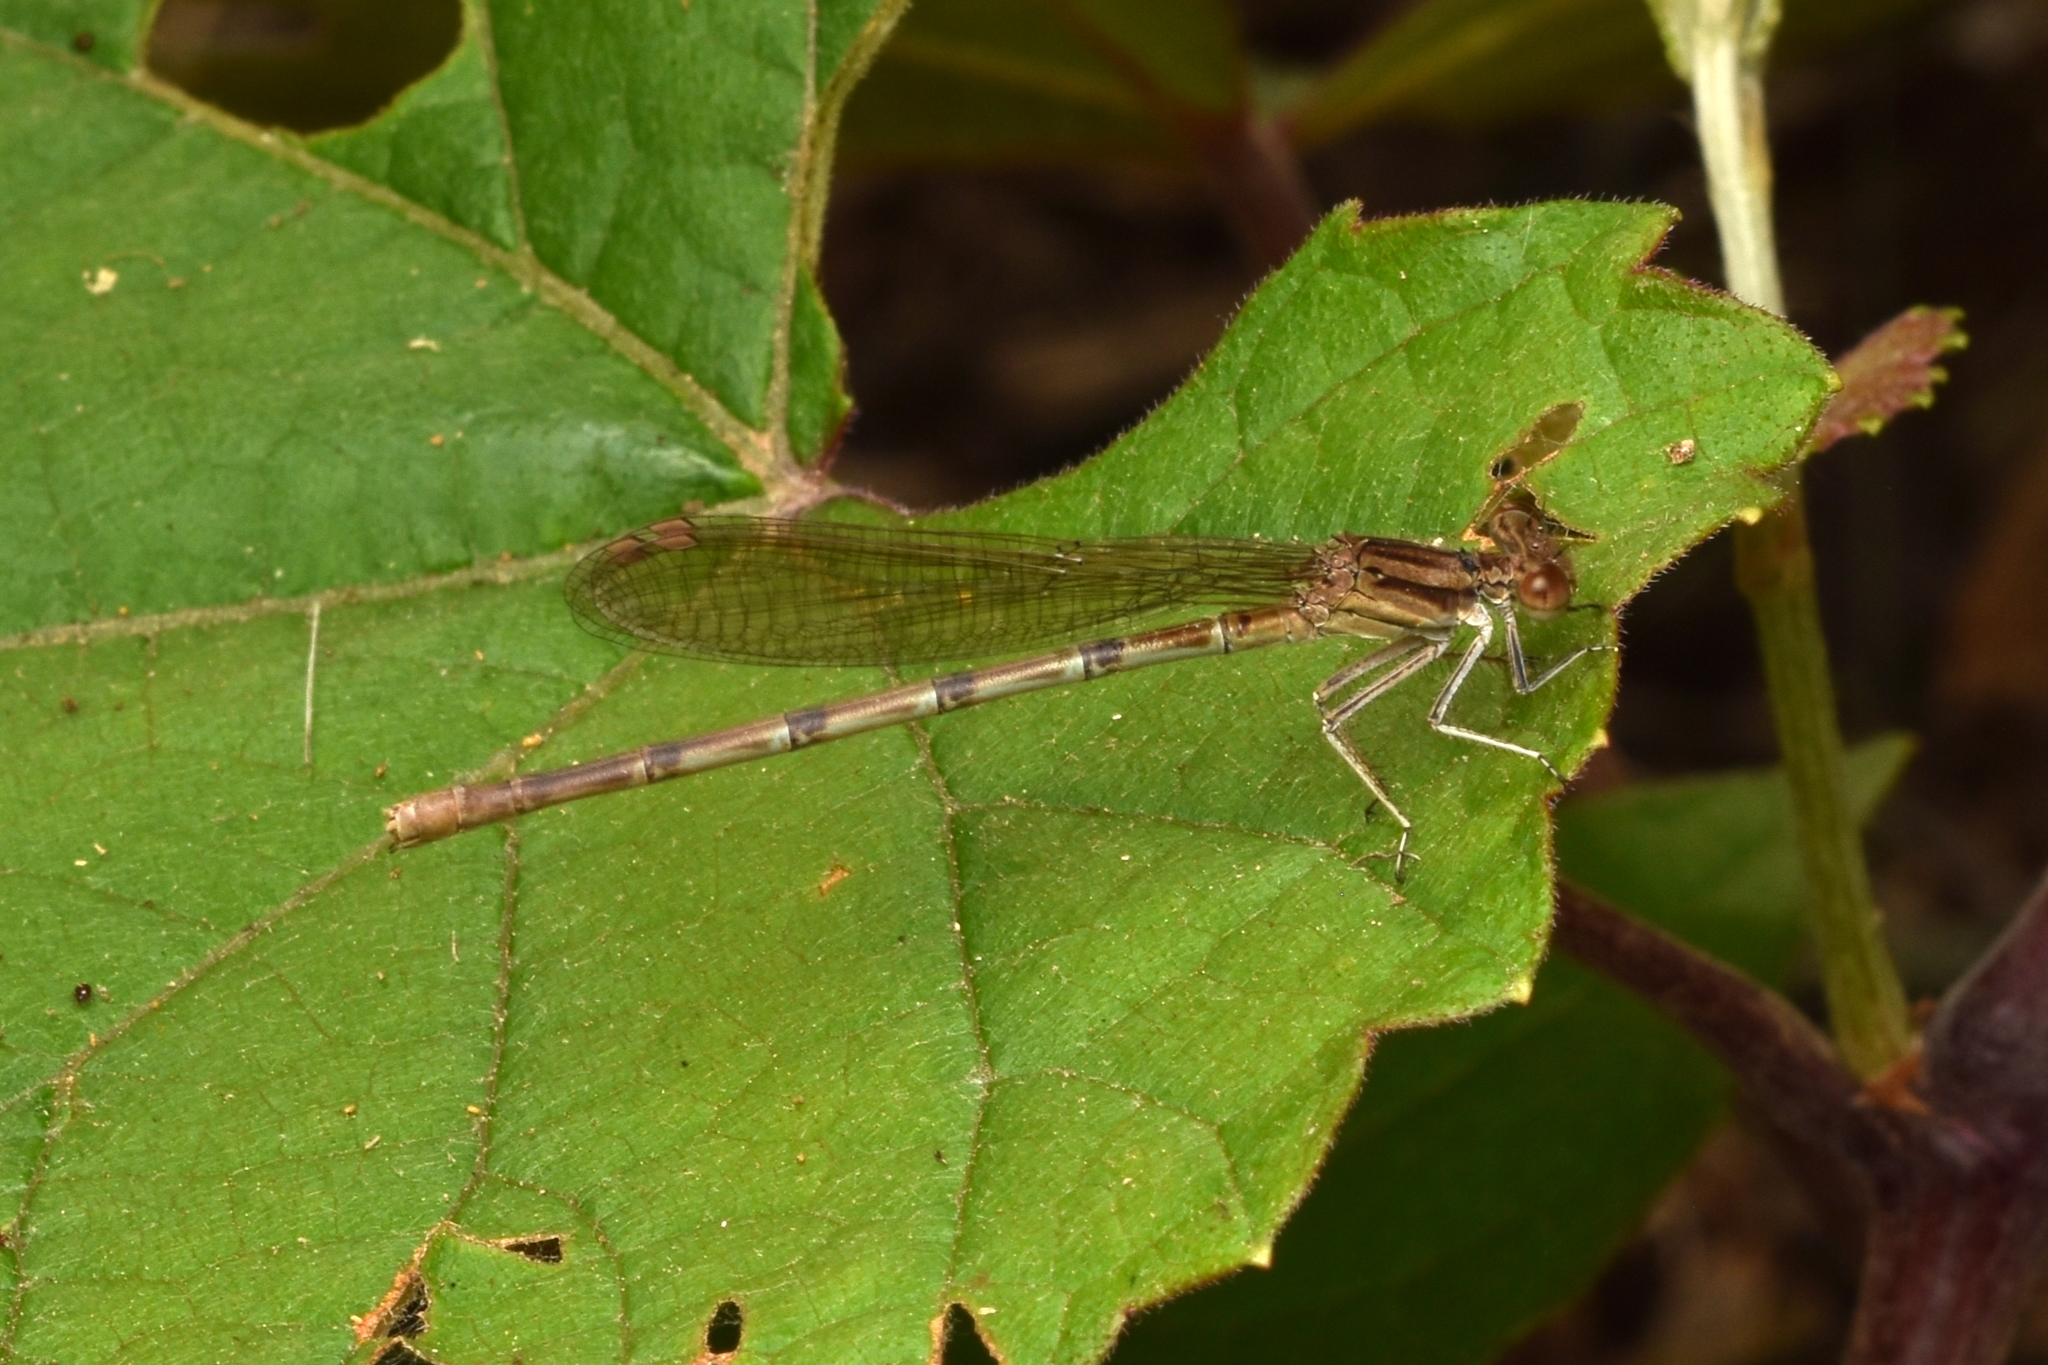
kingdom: Animalia
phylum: Arthropoda
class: Insecta
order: Odonata
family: Coenagrionidae
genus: Argia
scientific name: Argia sedula
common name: Blue-ringed dancer
